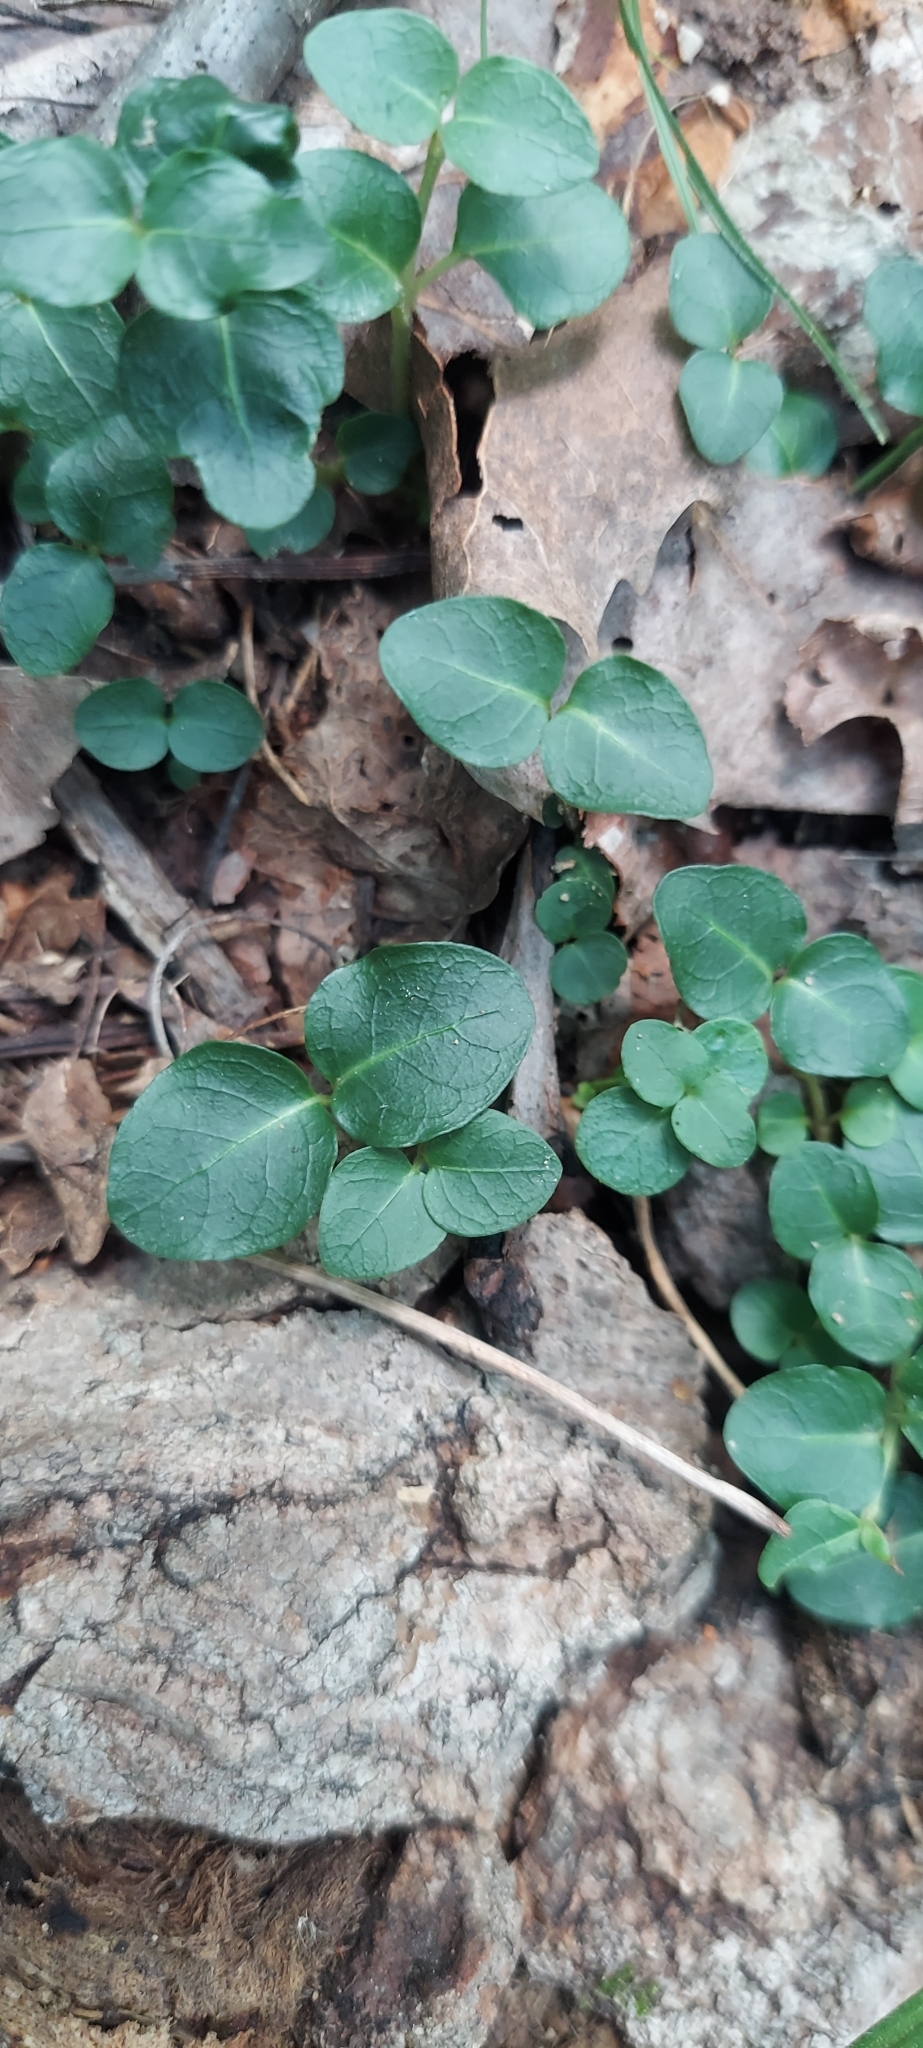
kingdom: Plantae
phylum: Tracheophyta
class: Magnoliopsida
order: Gentianales
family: Rubiaceae
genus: Mitchella
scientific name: Mitchella repens
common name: Partridge-berry
